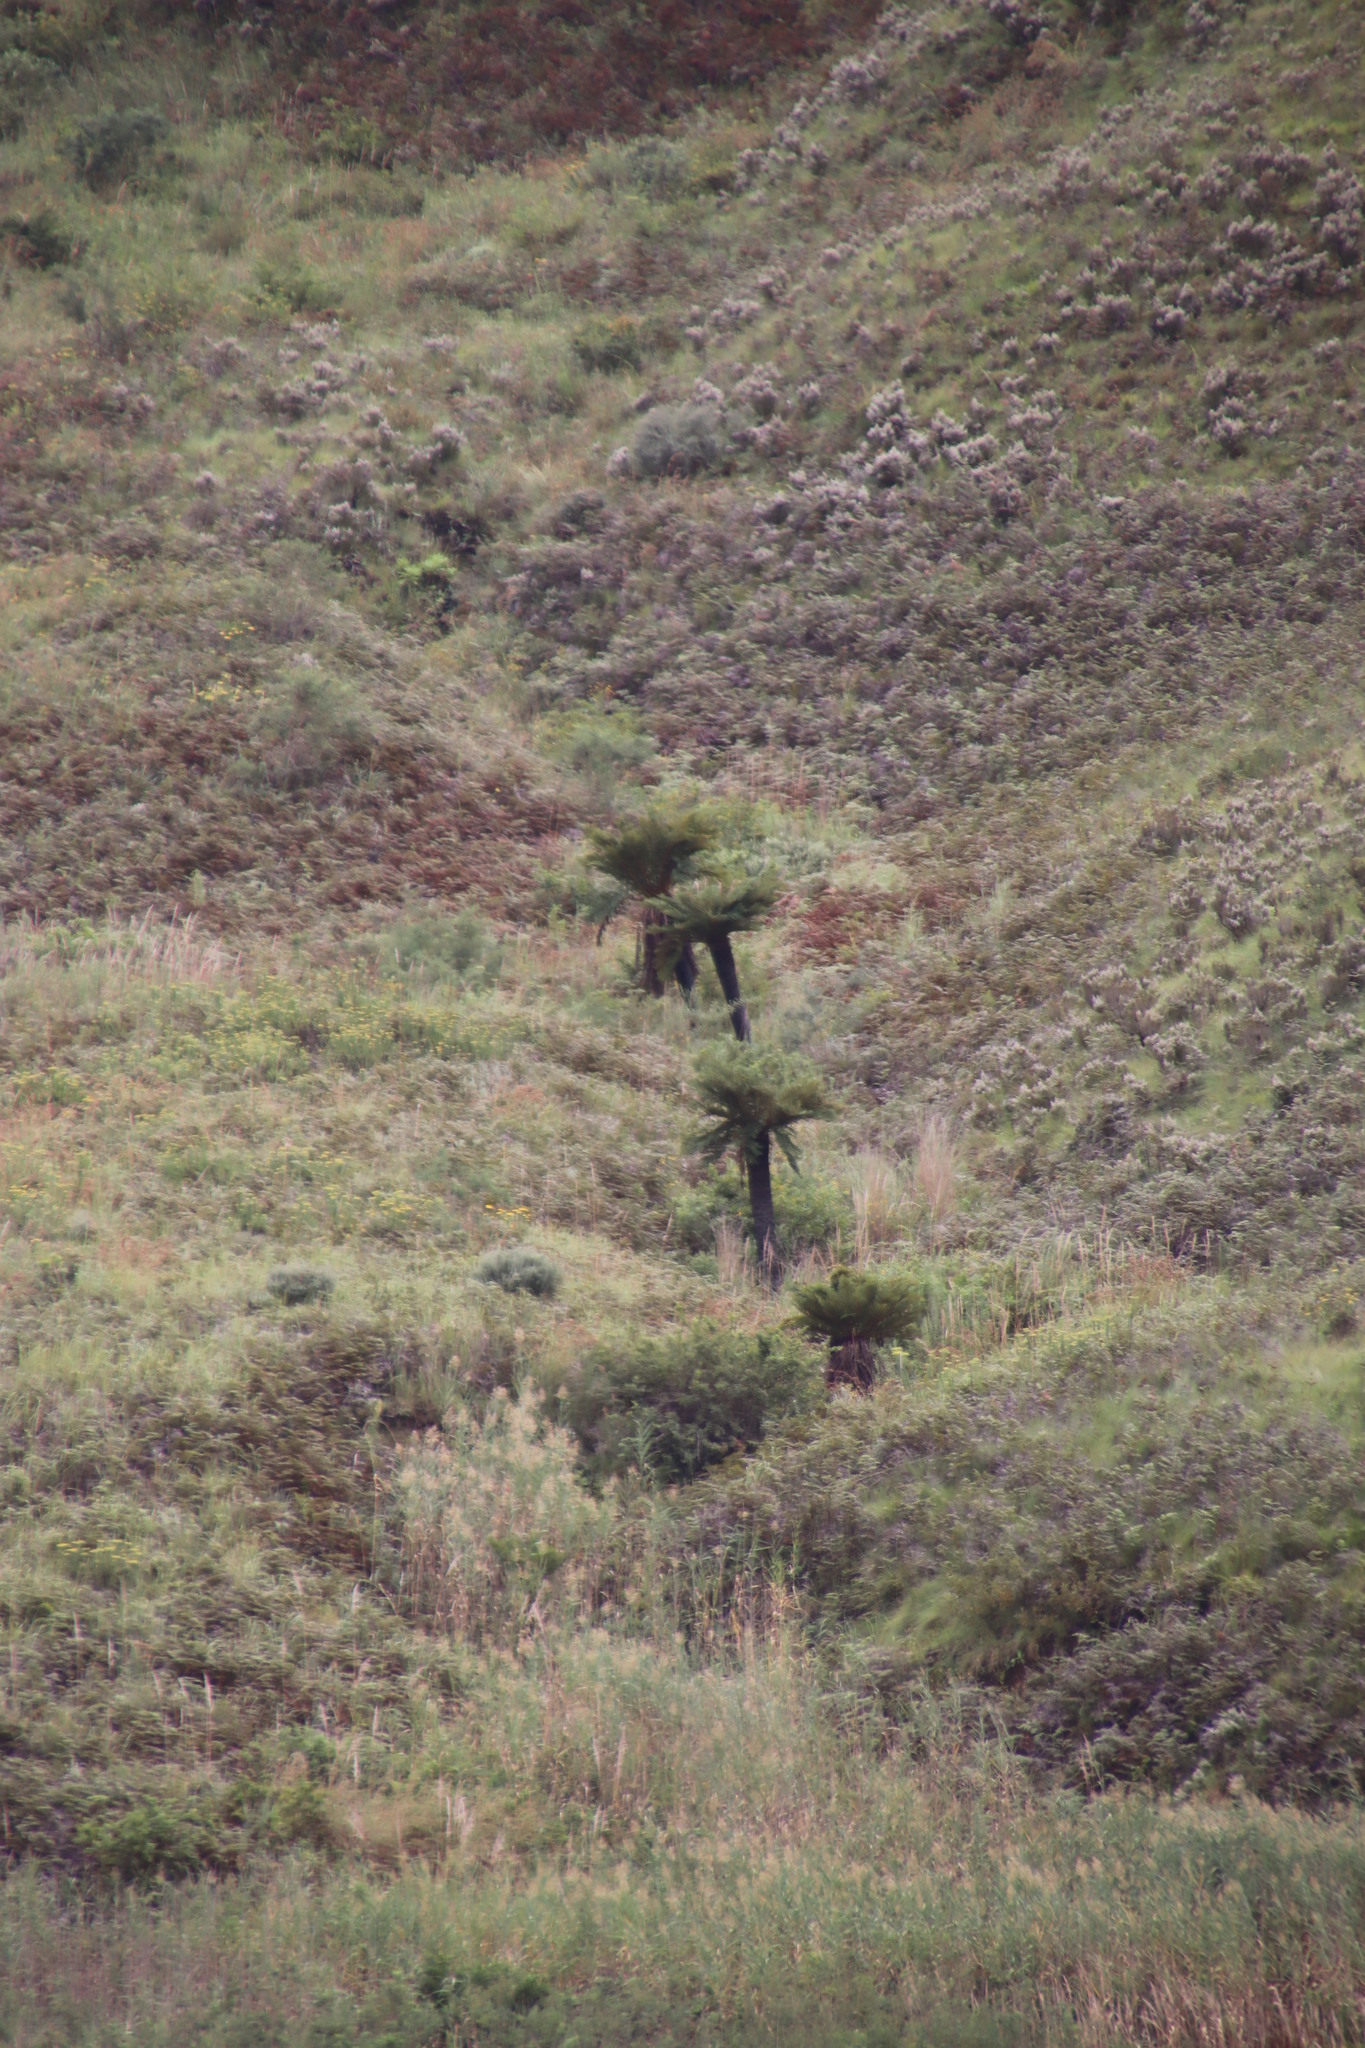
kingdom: Plantae
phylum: Tracheophyta
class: Polypodiopsida
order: Cyatheales
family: Cyatheaceae
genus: Alsophila
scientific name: Alsophila dregei
